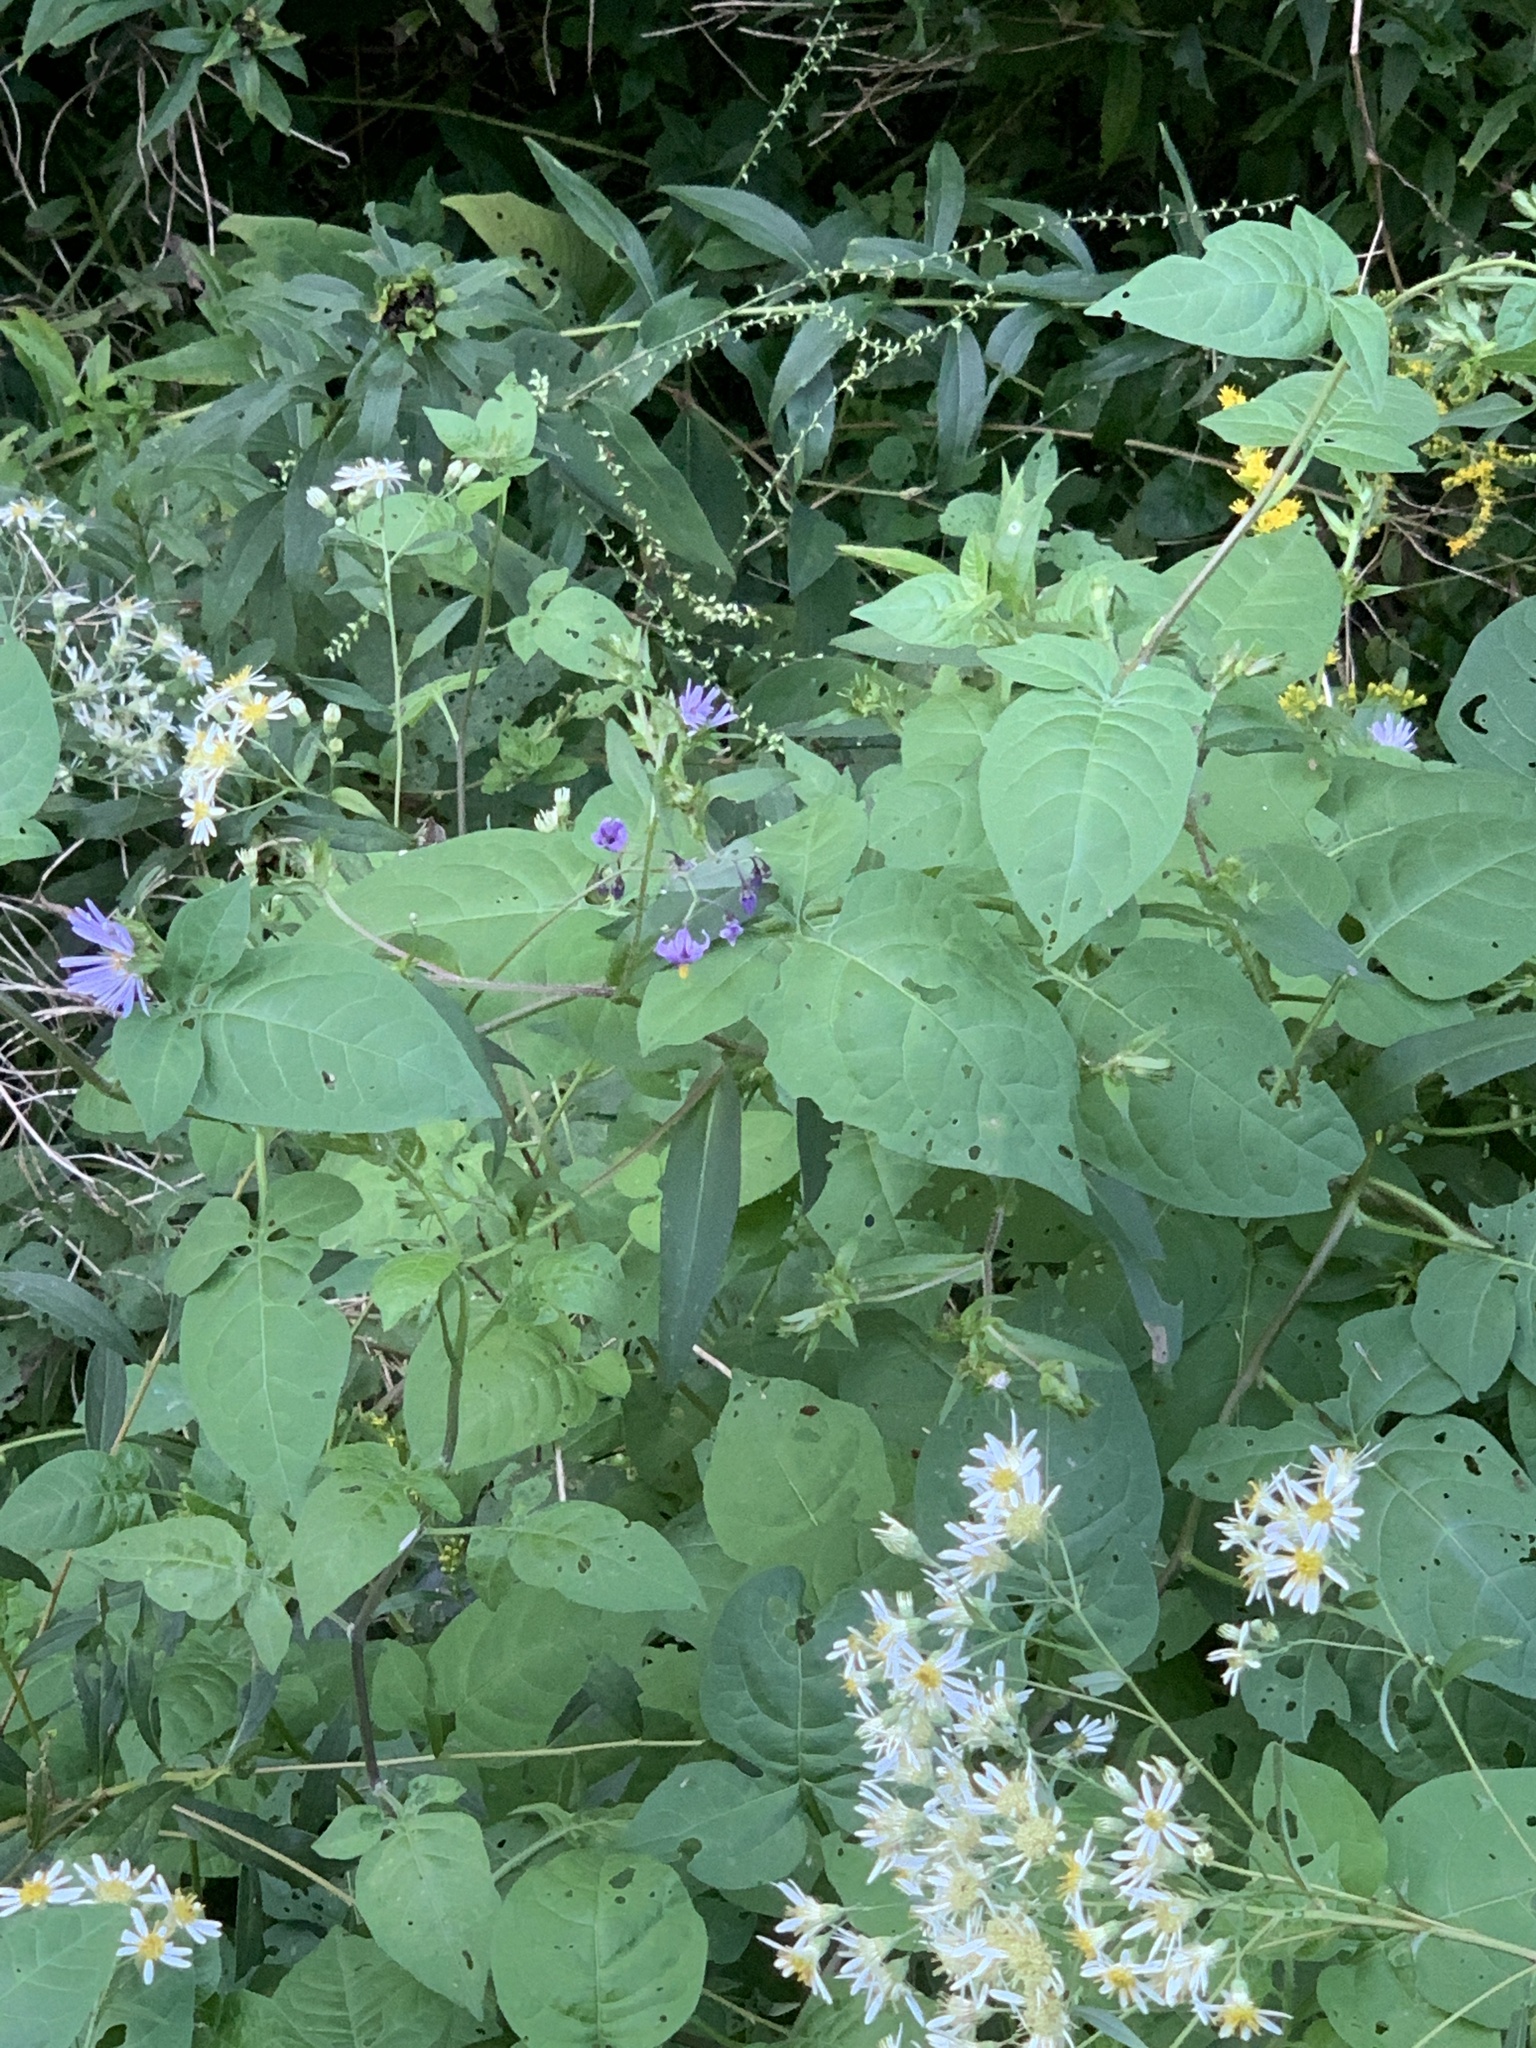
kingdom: Plantae
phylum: Tracheophyta
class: Magnoliopsida
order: Solanales
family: Solanaceae
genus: Solanum
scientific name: Solanum dulcamara
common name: Climbing nightshade
